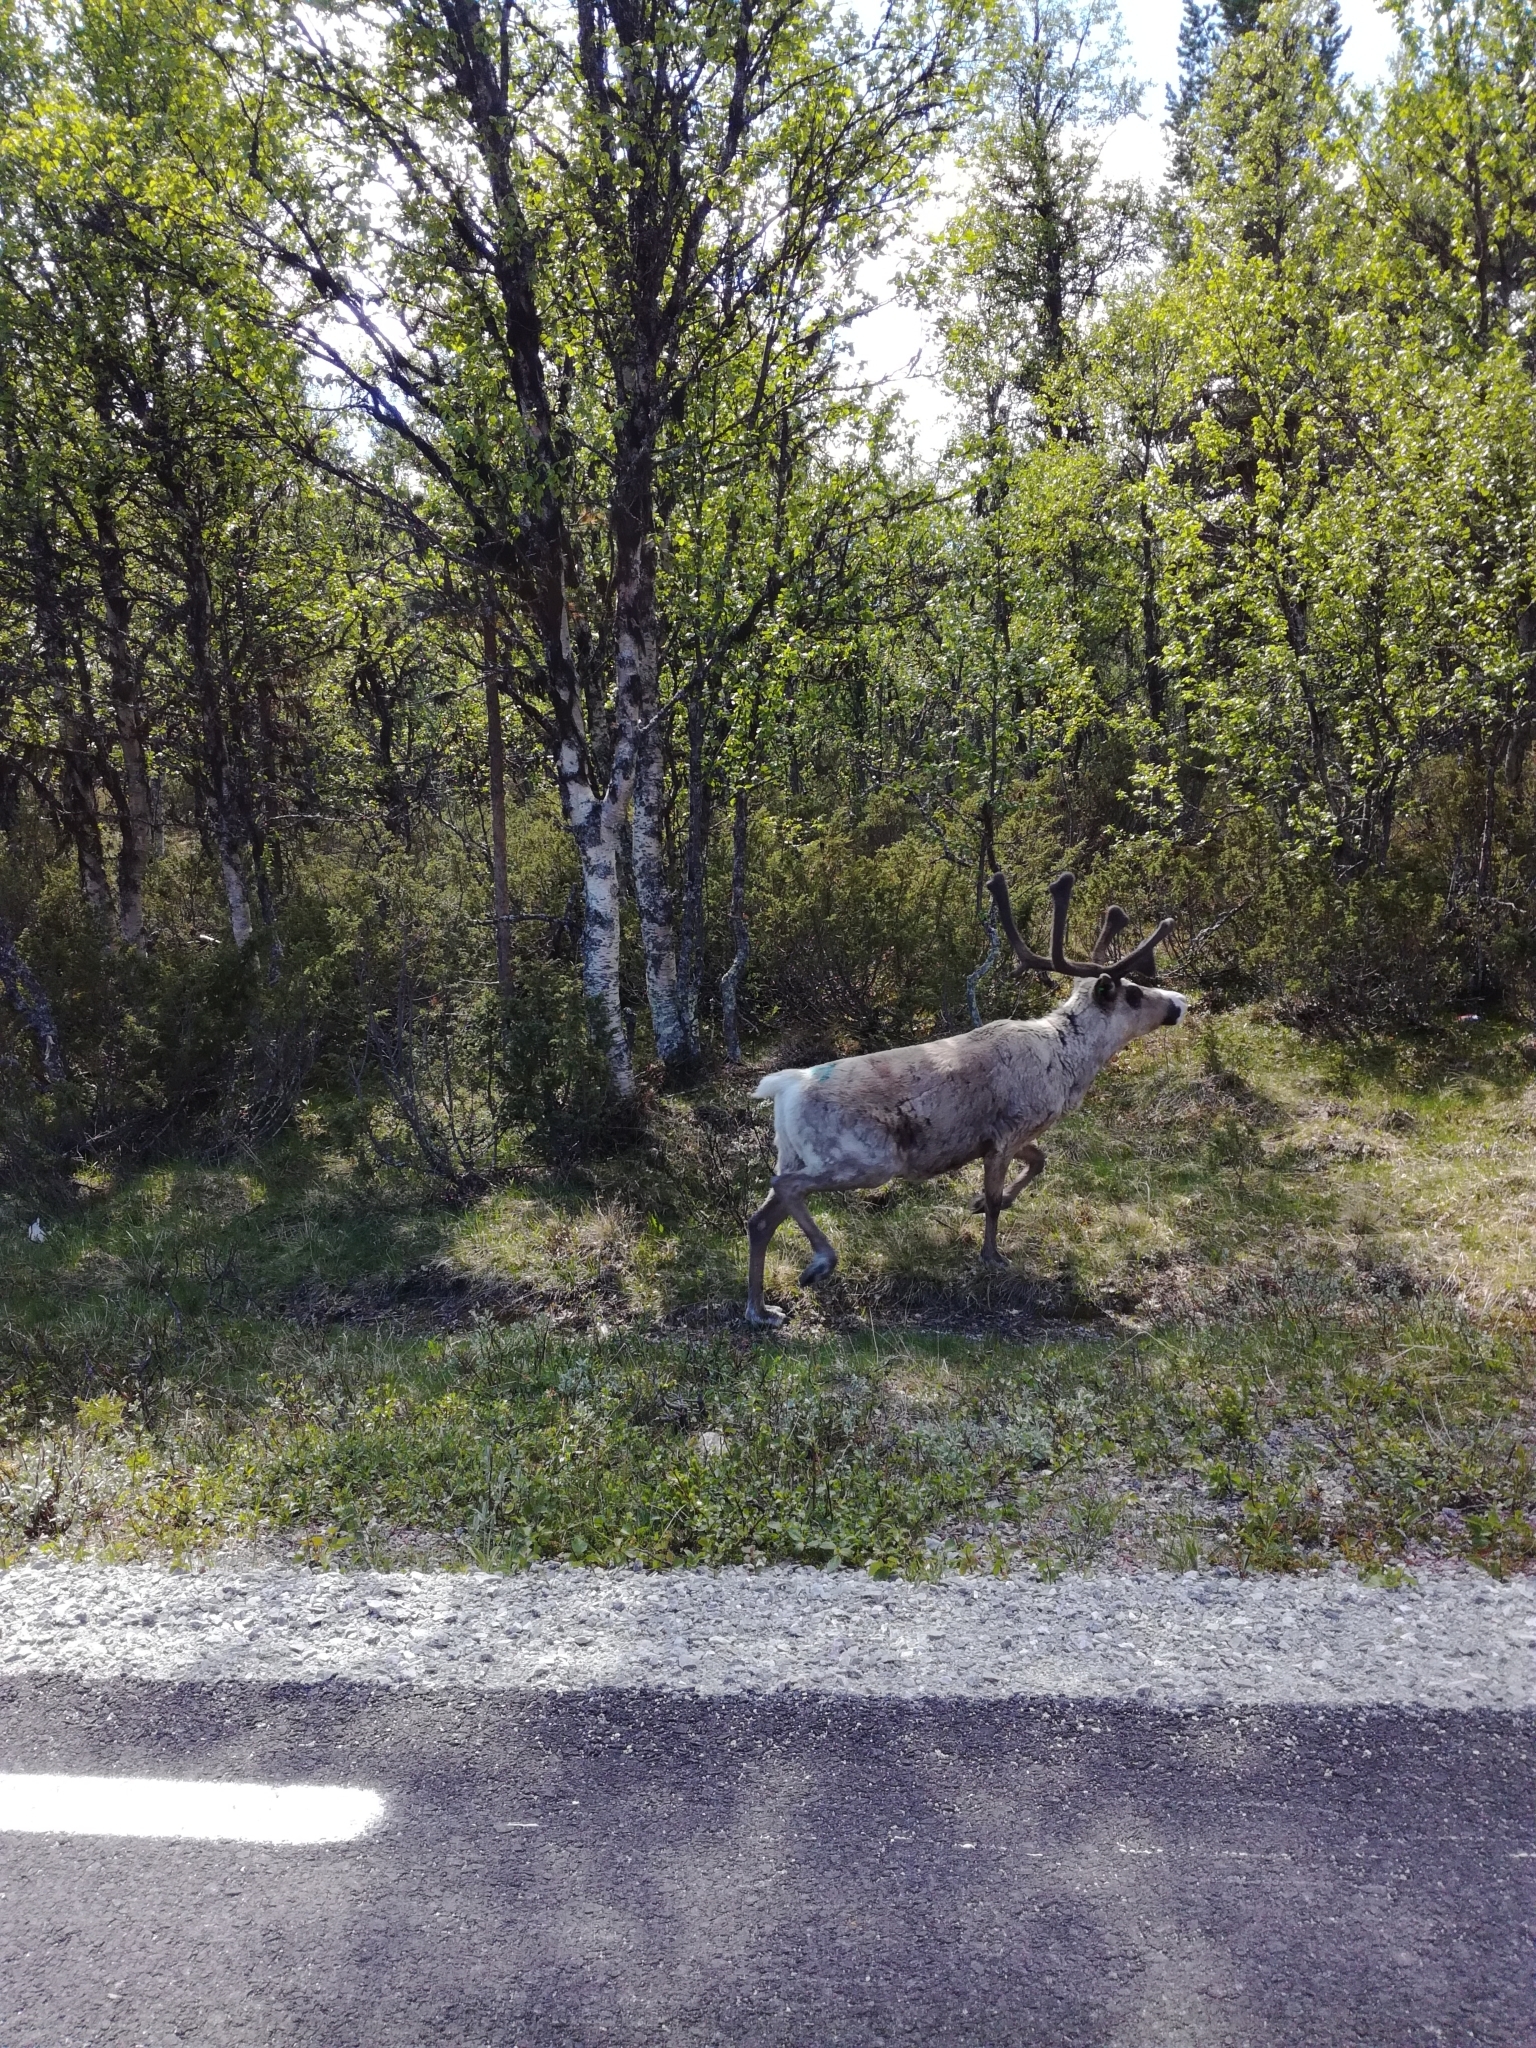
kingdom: Animalia
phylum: Chordata
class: Mammalia
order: Artiodactyla
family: Cervidae
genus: Rangifer
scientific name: Rangifer tarandus
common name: Reindeer
